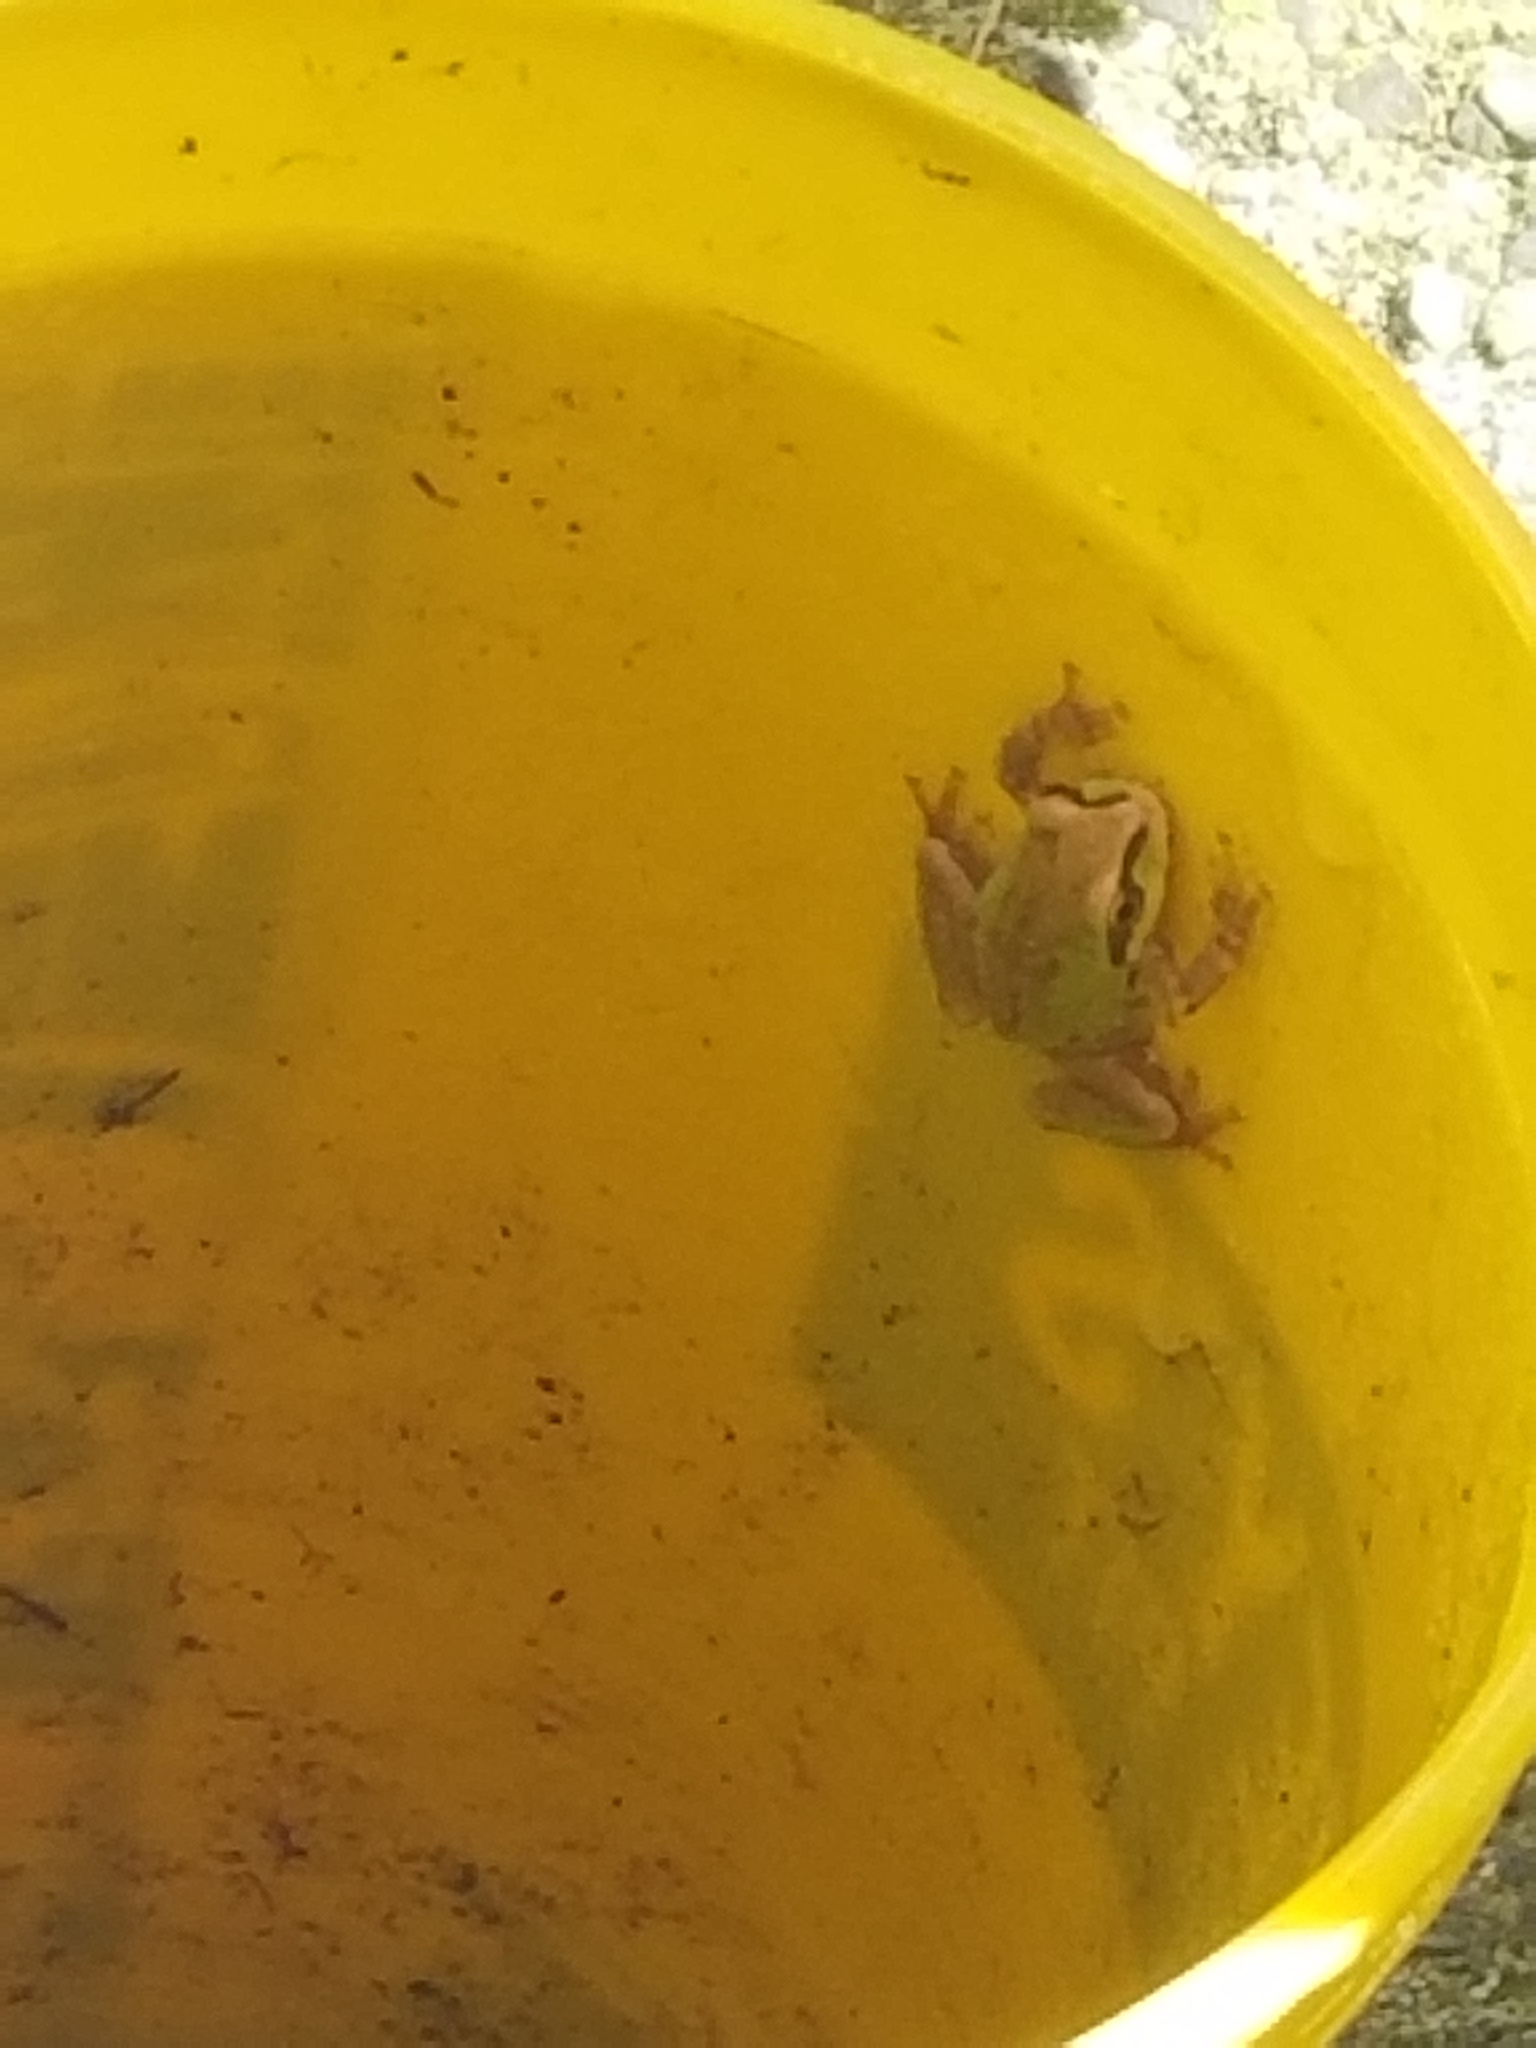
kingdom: Animalia
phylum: Chordata
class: Amphibia
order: Anura
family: Hylidae
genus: Pseudacris
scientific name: Pseudacris regilla
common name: Pacific chorus frog
